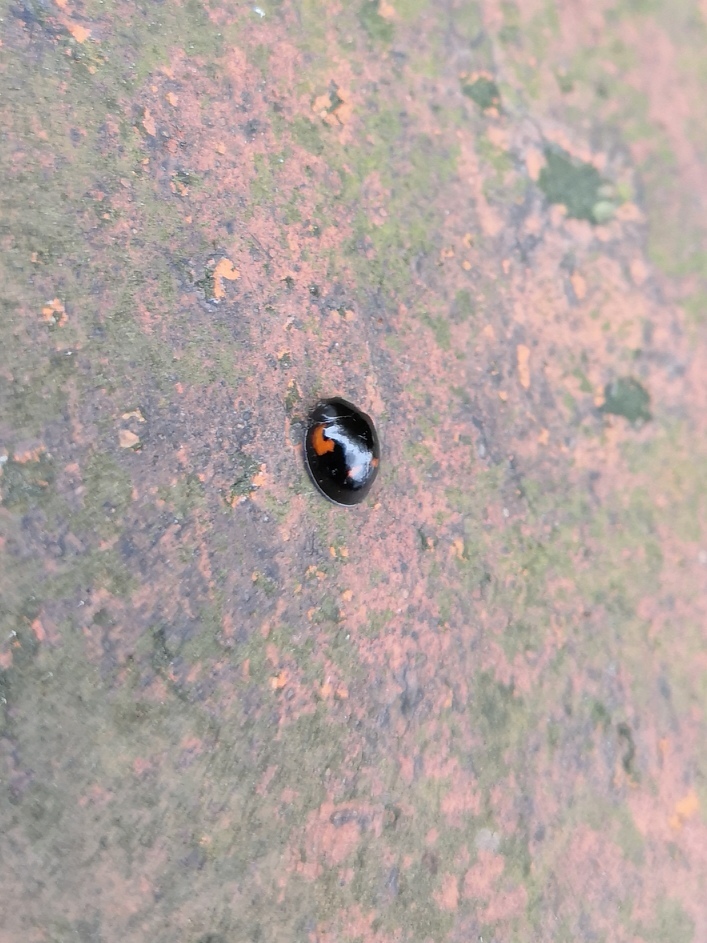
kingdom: Animalia
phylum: Arthropoda
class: Insecta
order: Coleoptera
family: Coccinellidae
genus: Brumus
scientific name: Brumus quadripustulatus
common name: Ladybird beetle
